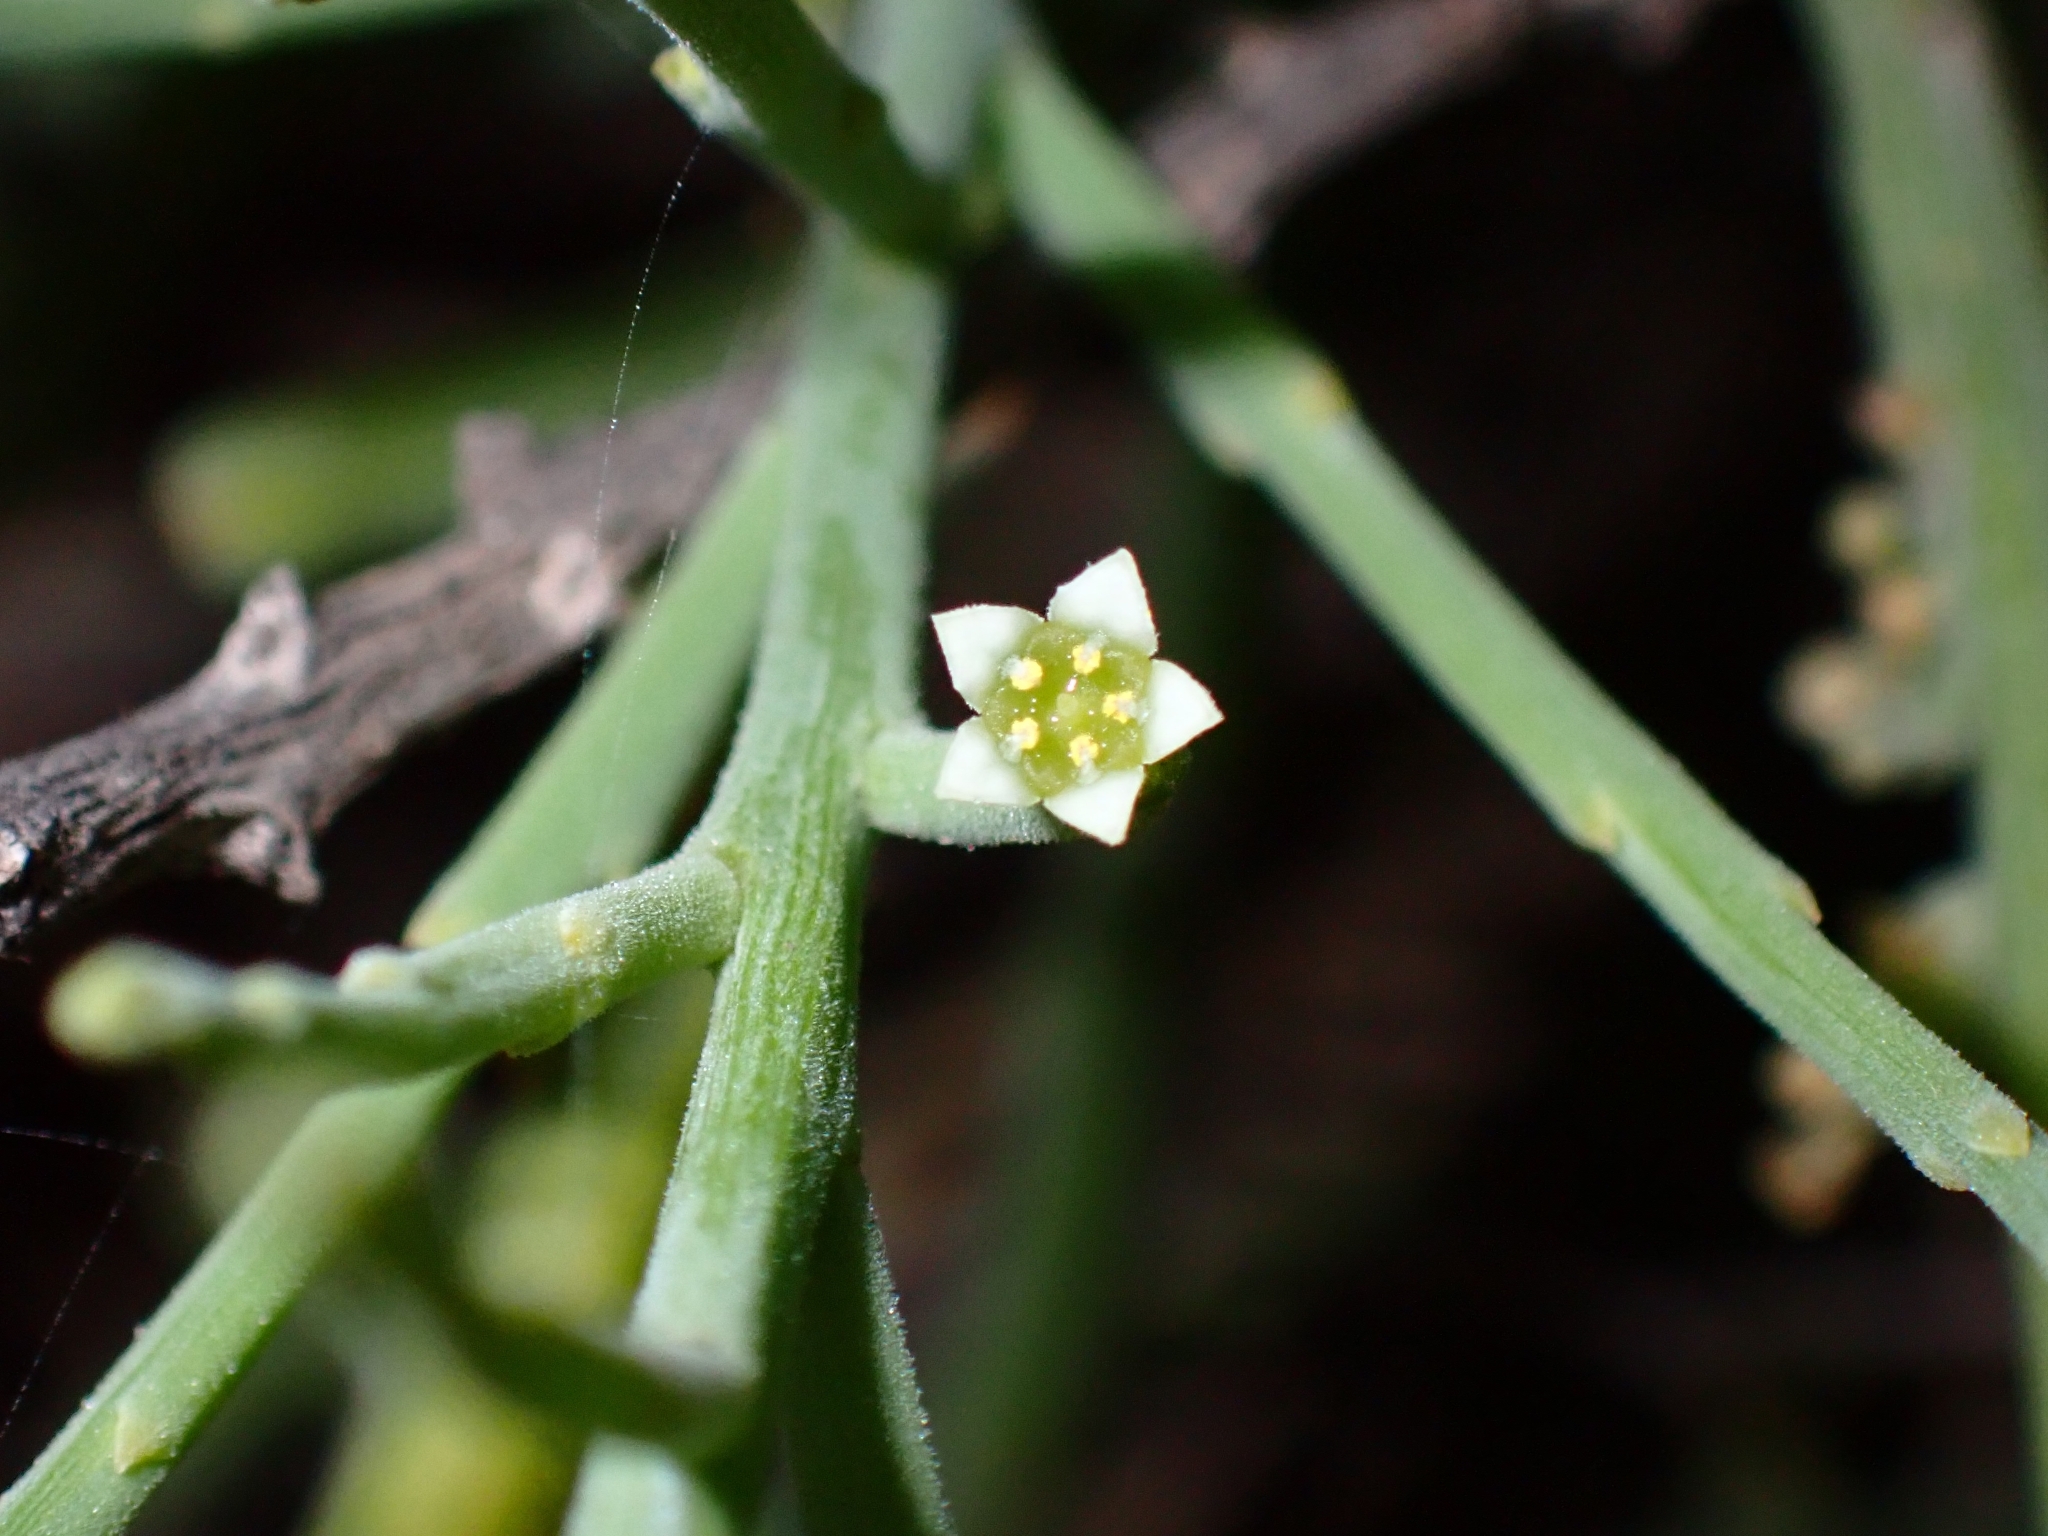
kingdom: Plantae
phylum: Tracheophyta
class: Magnoliopsida
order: Santalales
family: Thesiaceae
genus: Thesium
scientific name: Thesium subsucculentum
